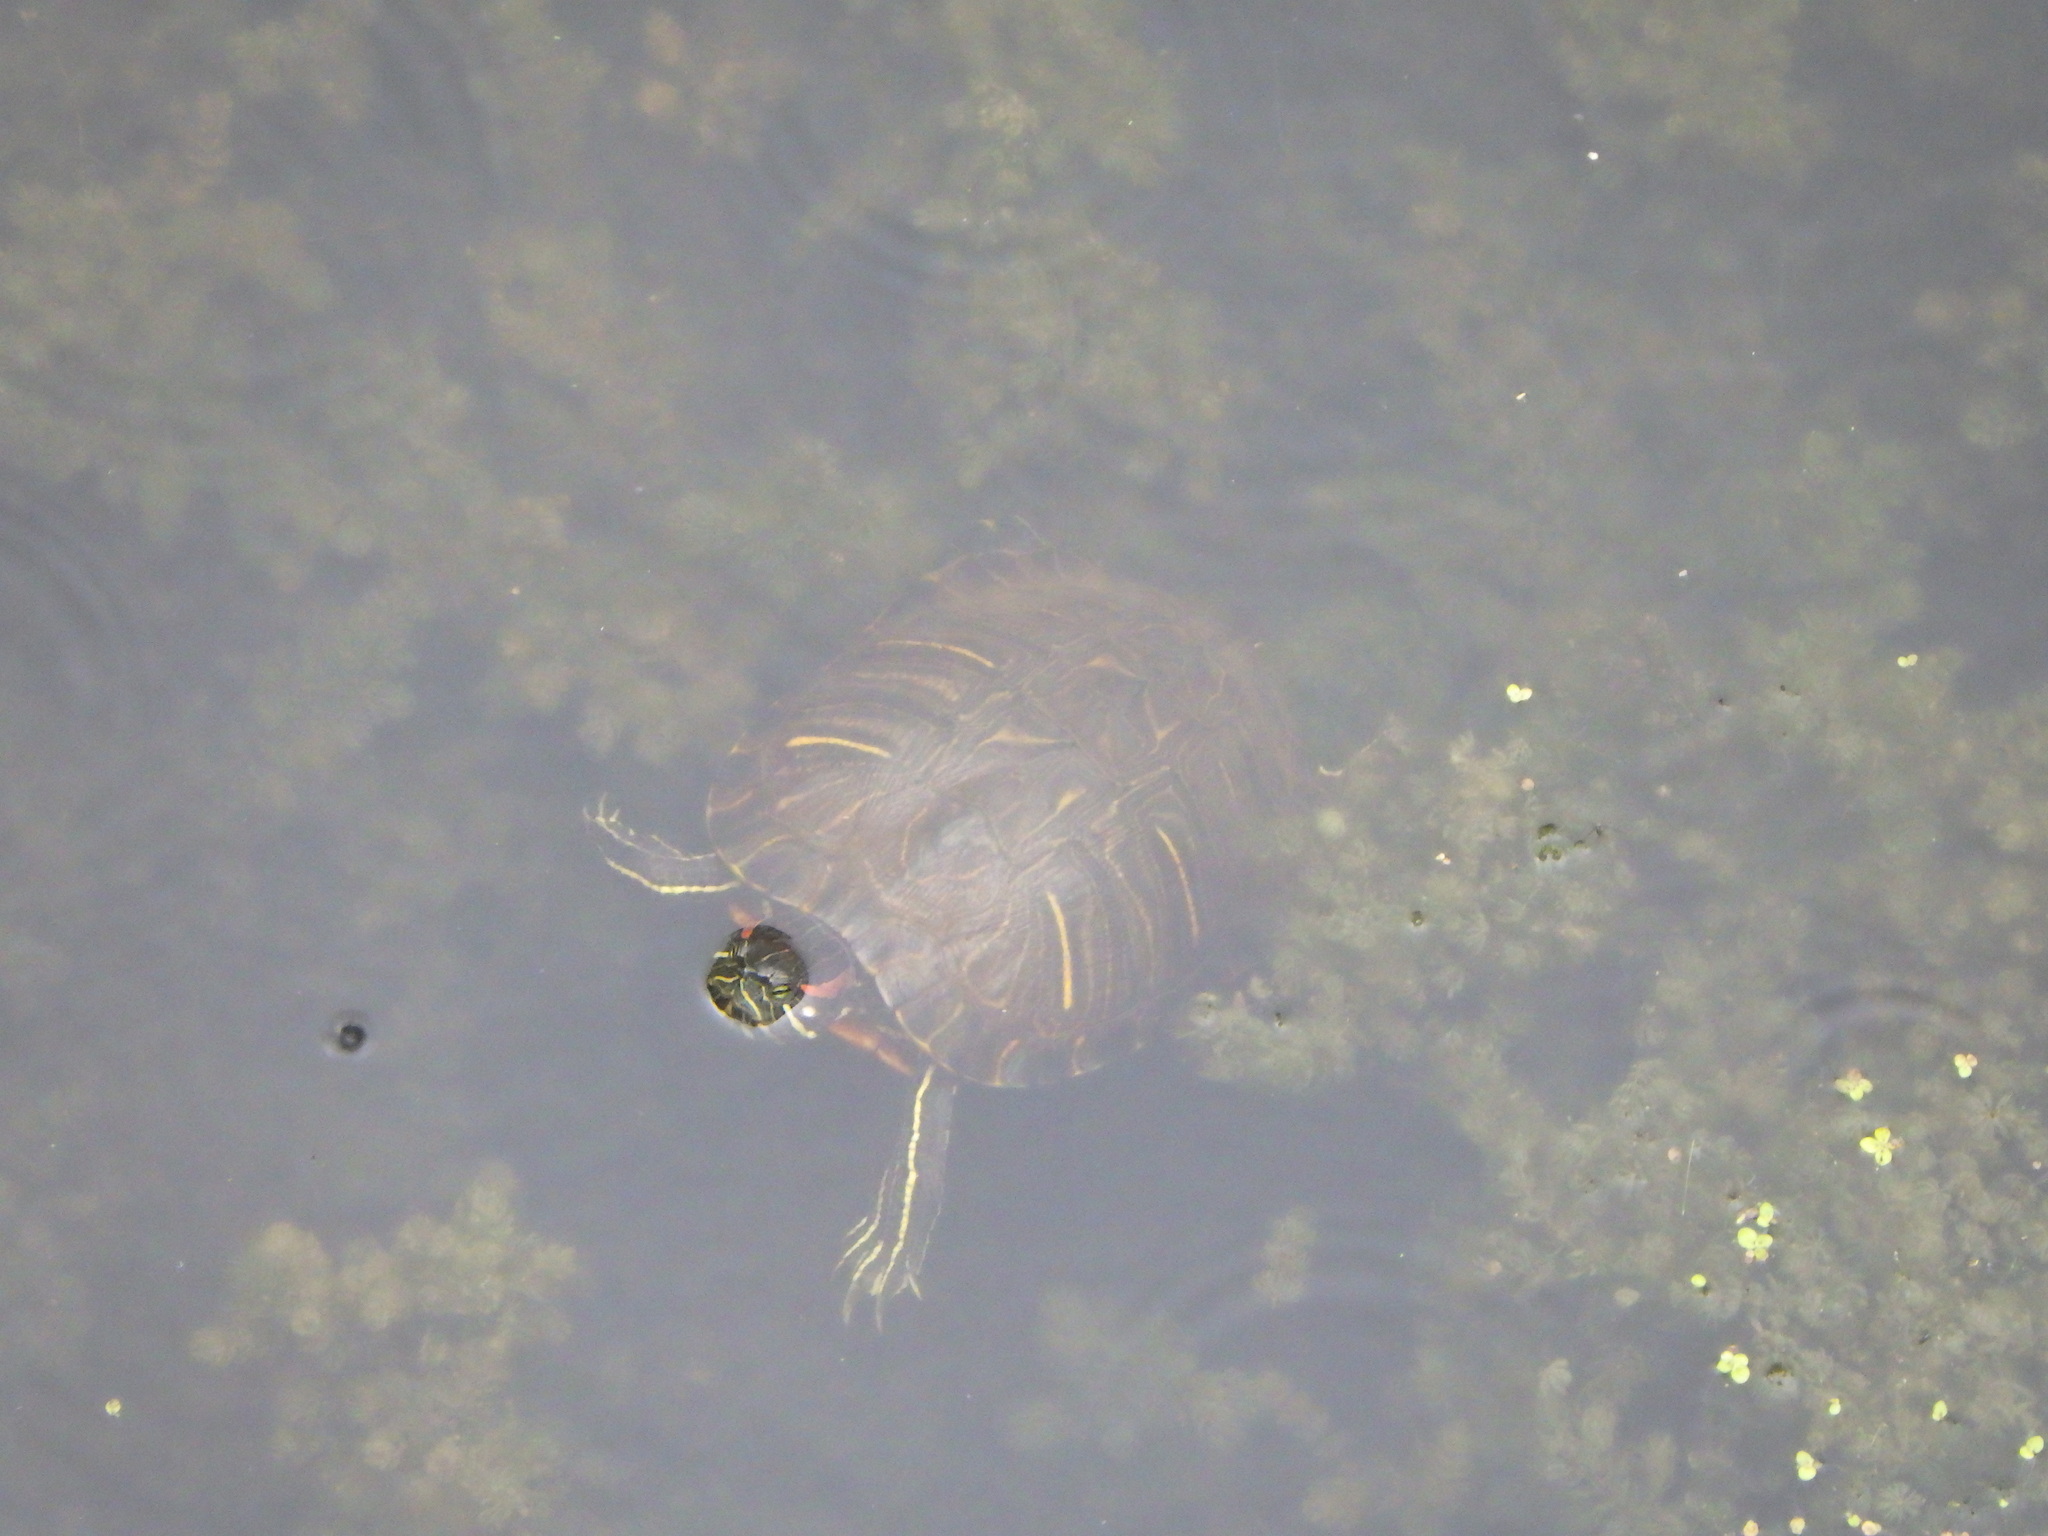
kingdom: Animalia
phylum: Chordata
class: Testudines
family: Emydidae
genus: Trachemys
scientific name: Trachemys scripta
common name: Slider
